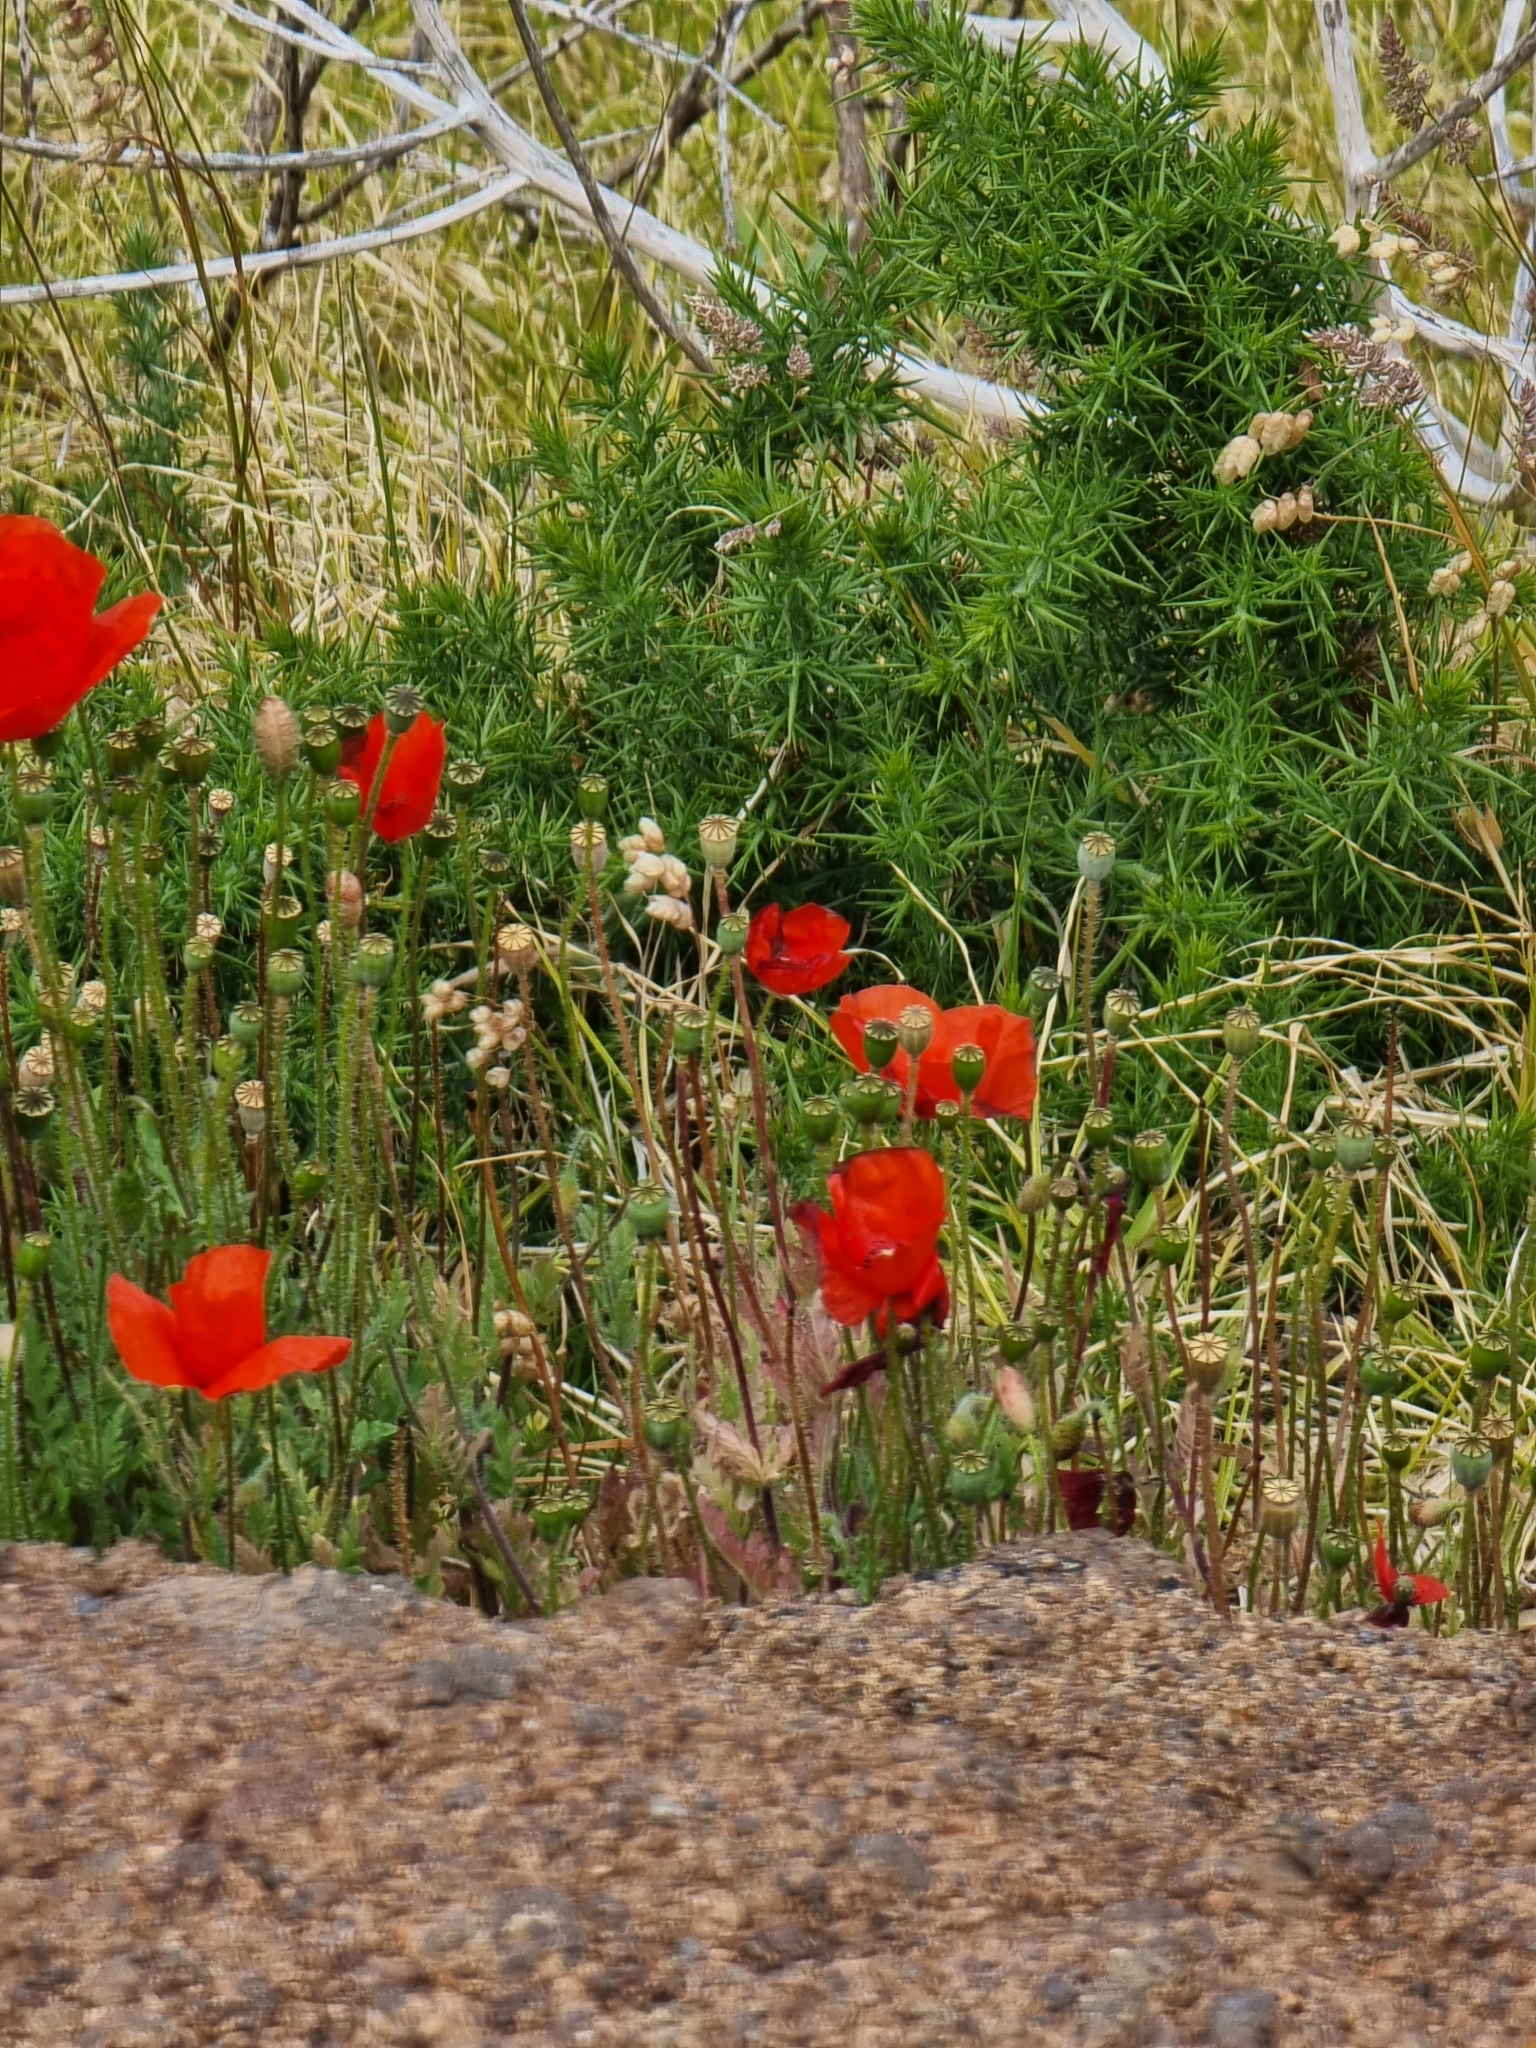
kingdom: Plantae
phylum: Tracheophyta
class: Magnoliopsida
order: Ranunculales
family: Papaveraceae
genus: Papaver
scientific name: Papaver rhoeas
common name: Corn poppy
